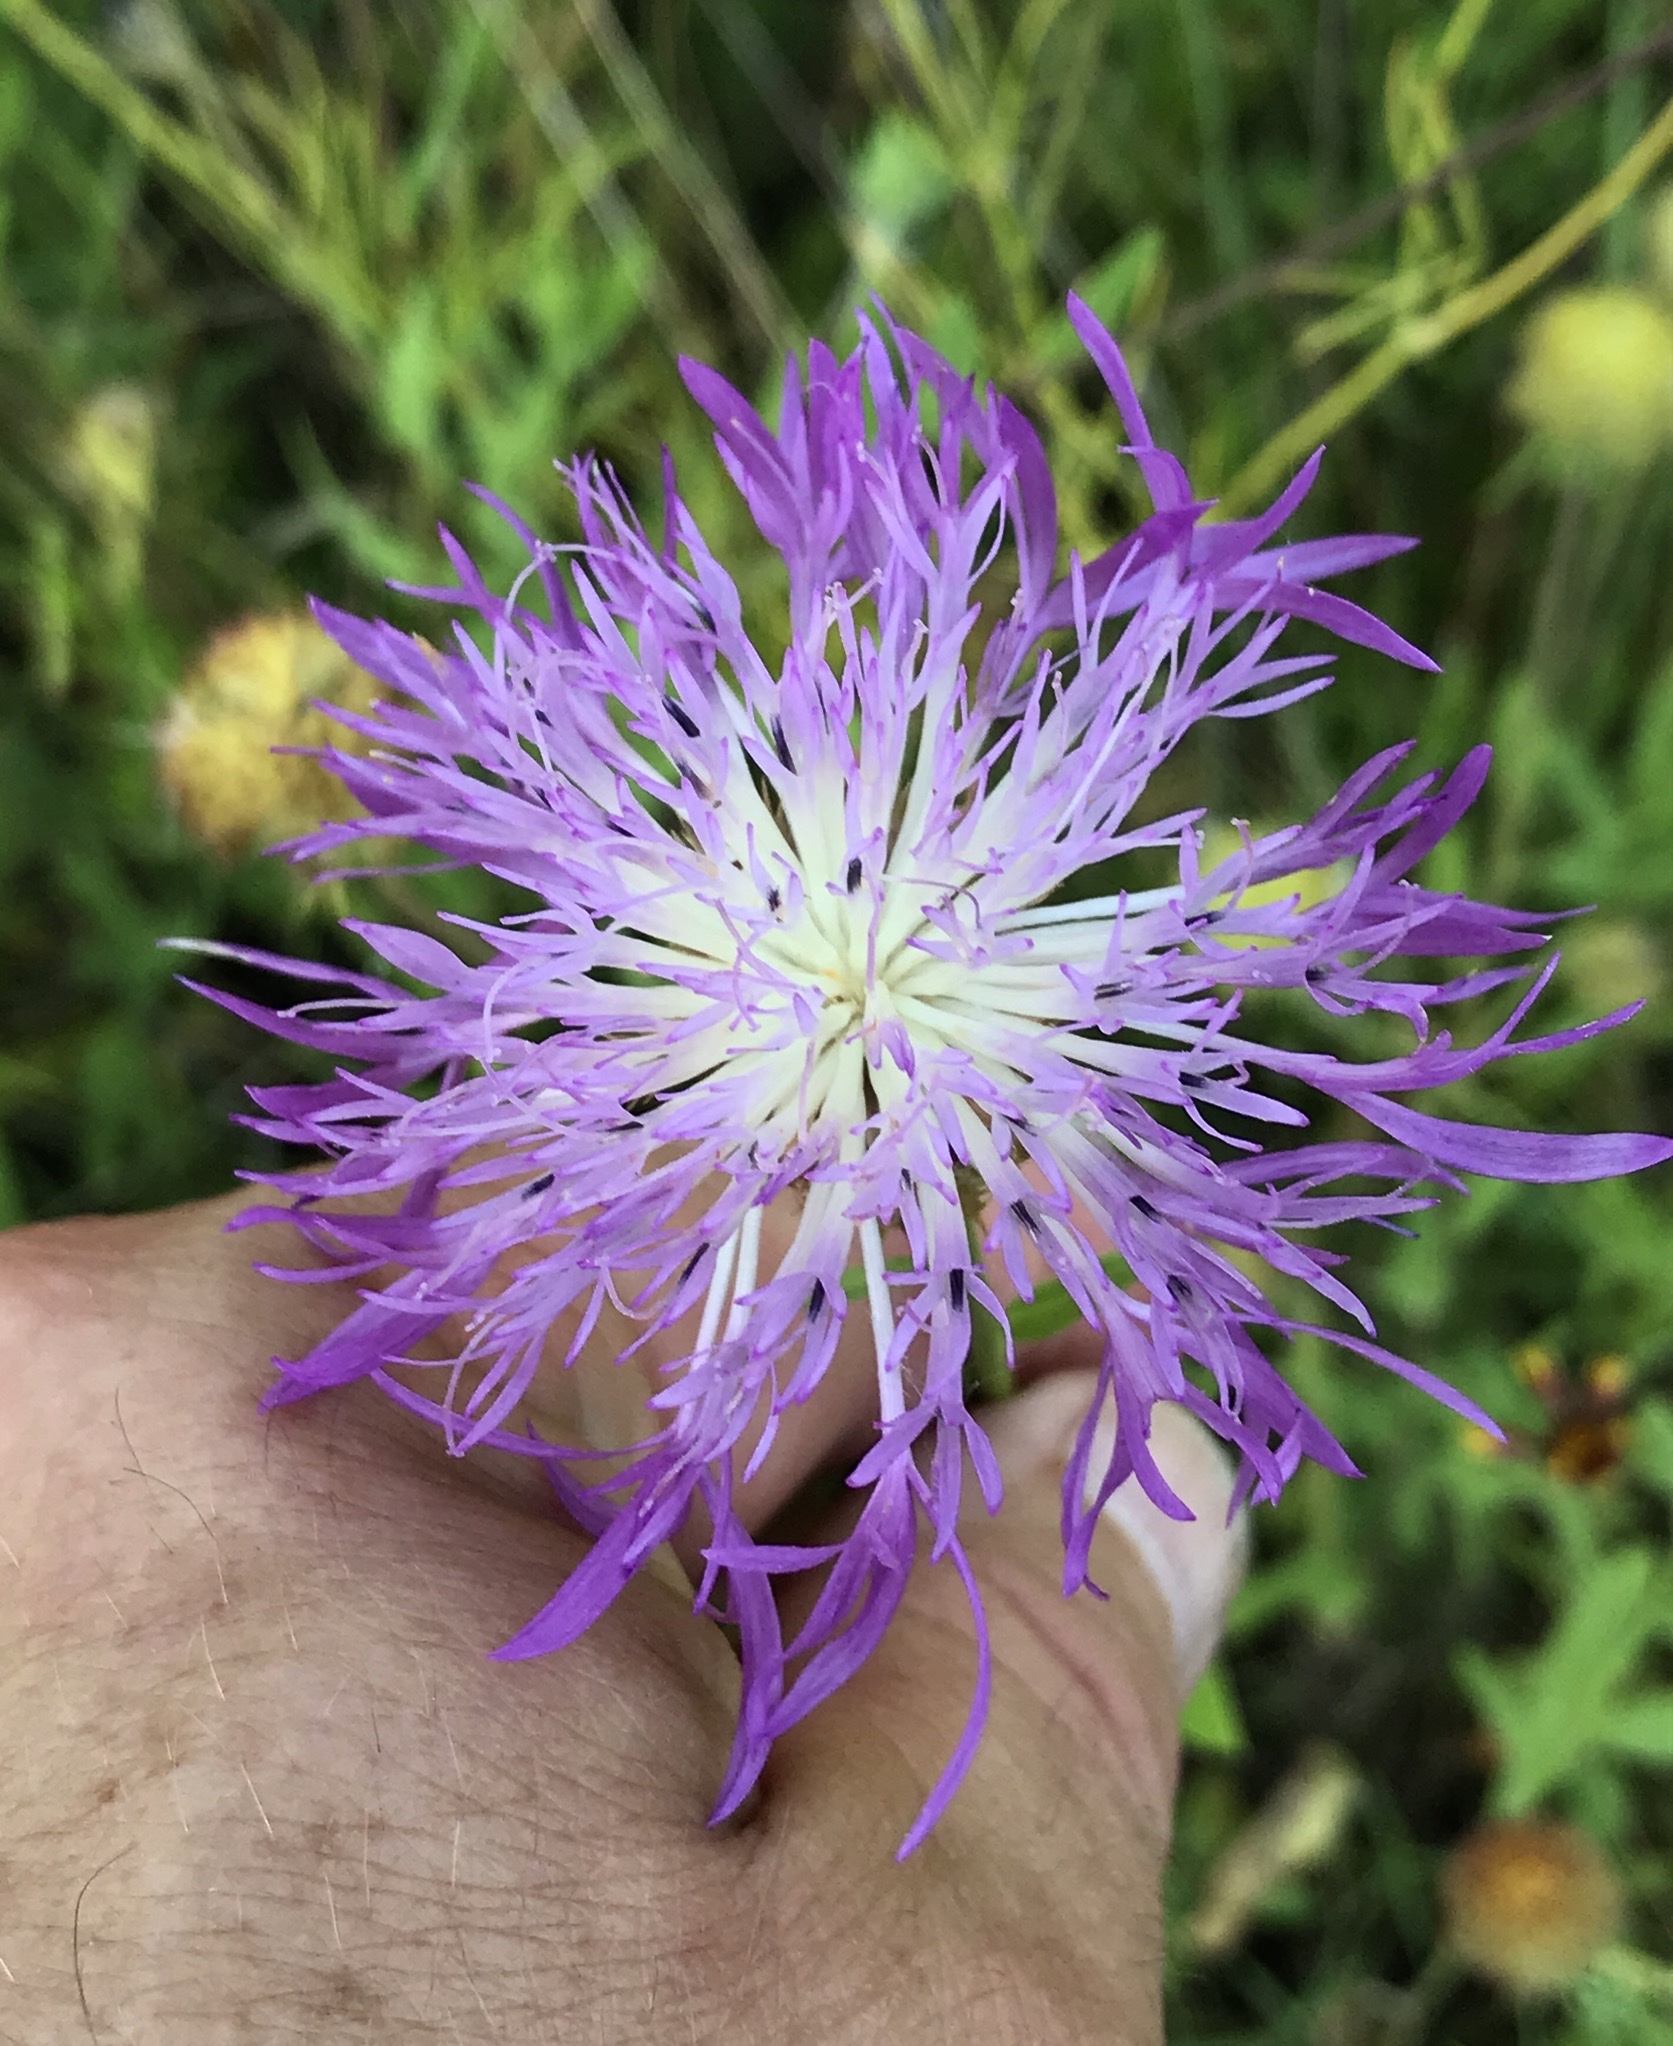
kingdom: Plantae
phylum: Tracheophyta
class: Magnoliopsida
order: Asterales
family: Asteraceae
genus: Plectocephalus
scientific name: Plectocephalus americanus
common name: American basket-flower
